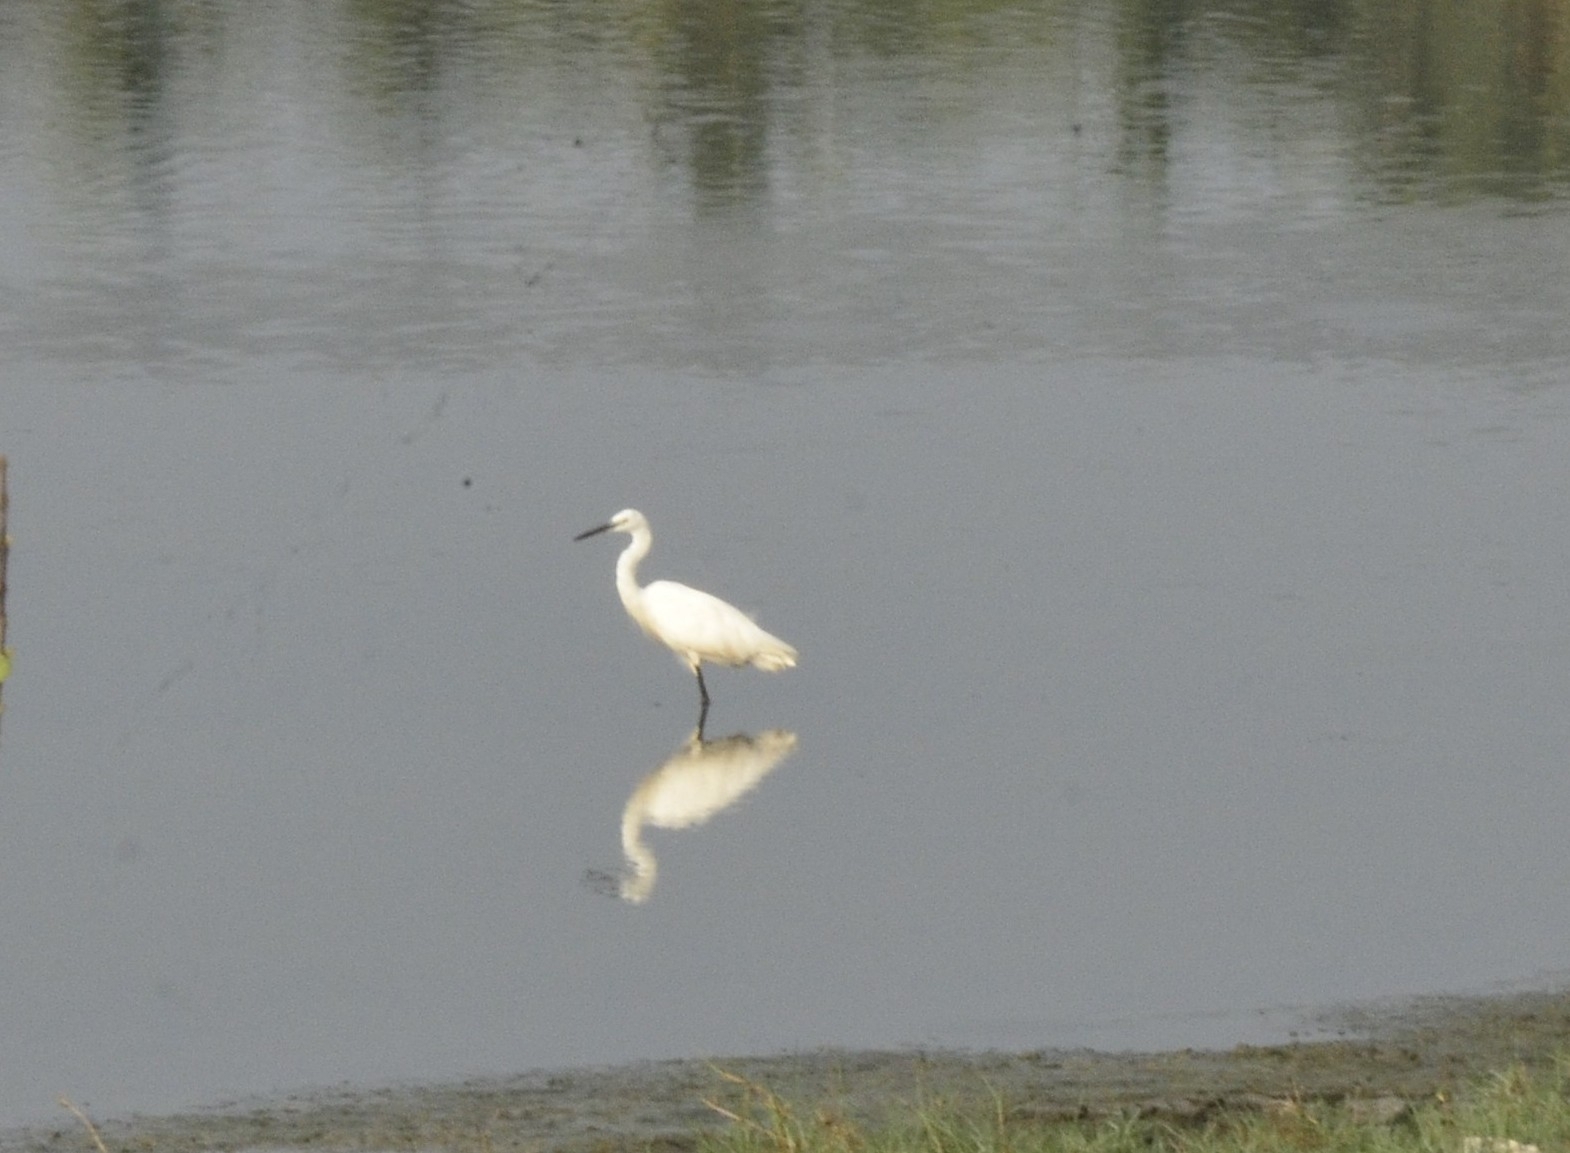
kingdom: Animalia
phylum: Chordata
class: Aves
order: Pelecaniformes
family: Ardeidae
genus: Egretta
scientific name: Egretta garzetta
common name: Little egret
